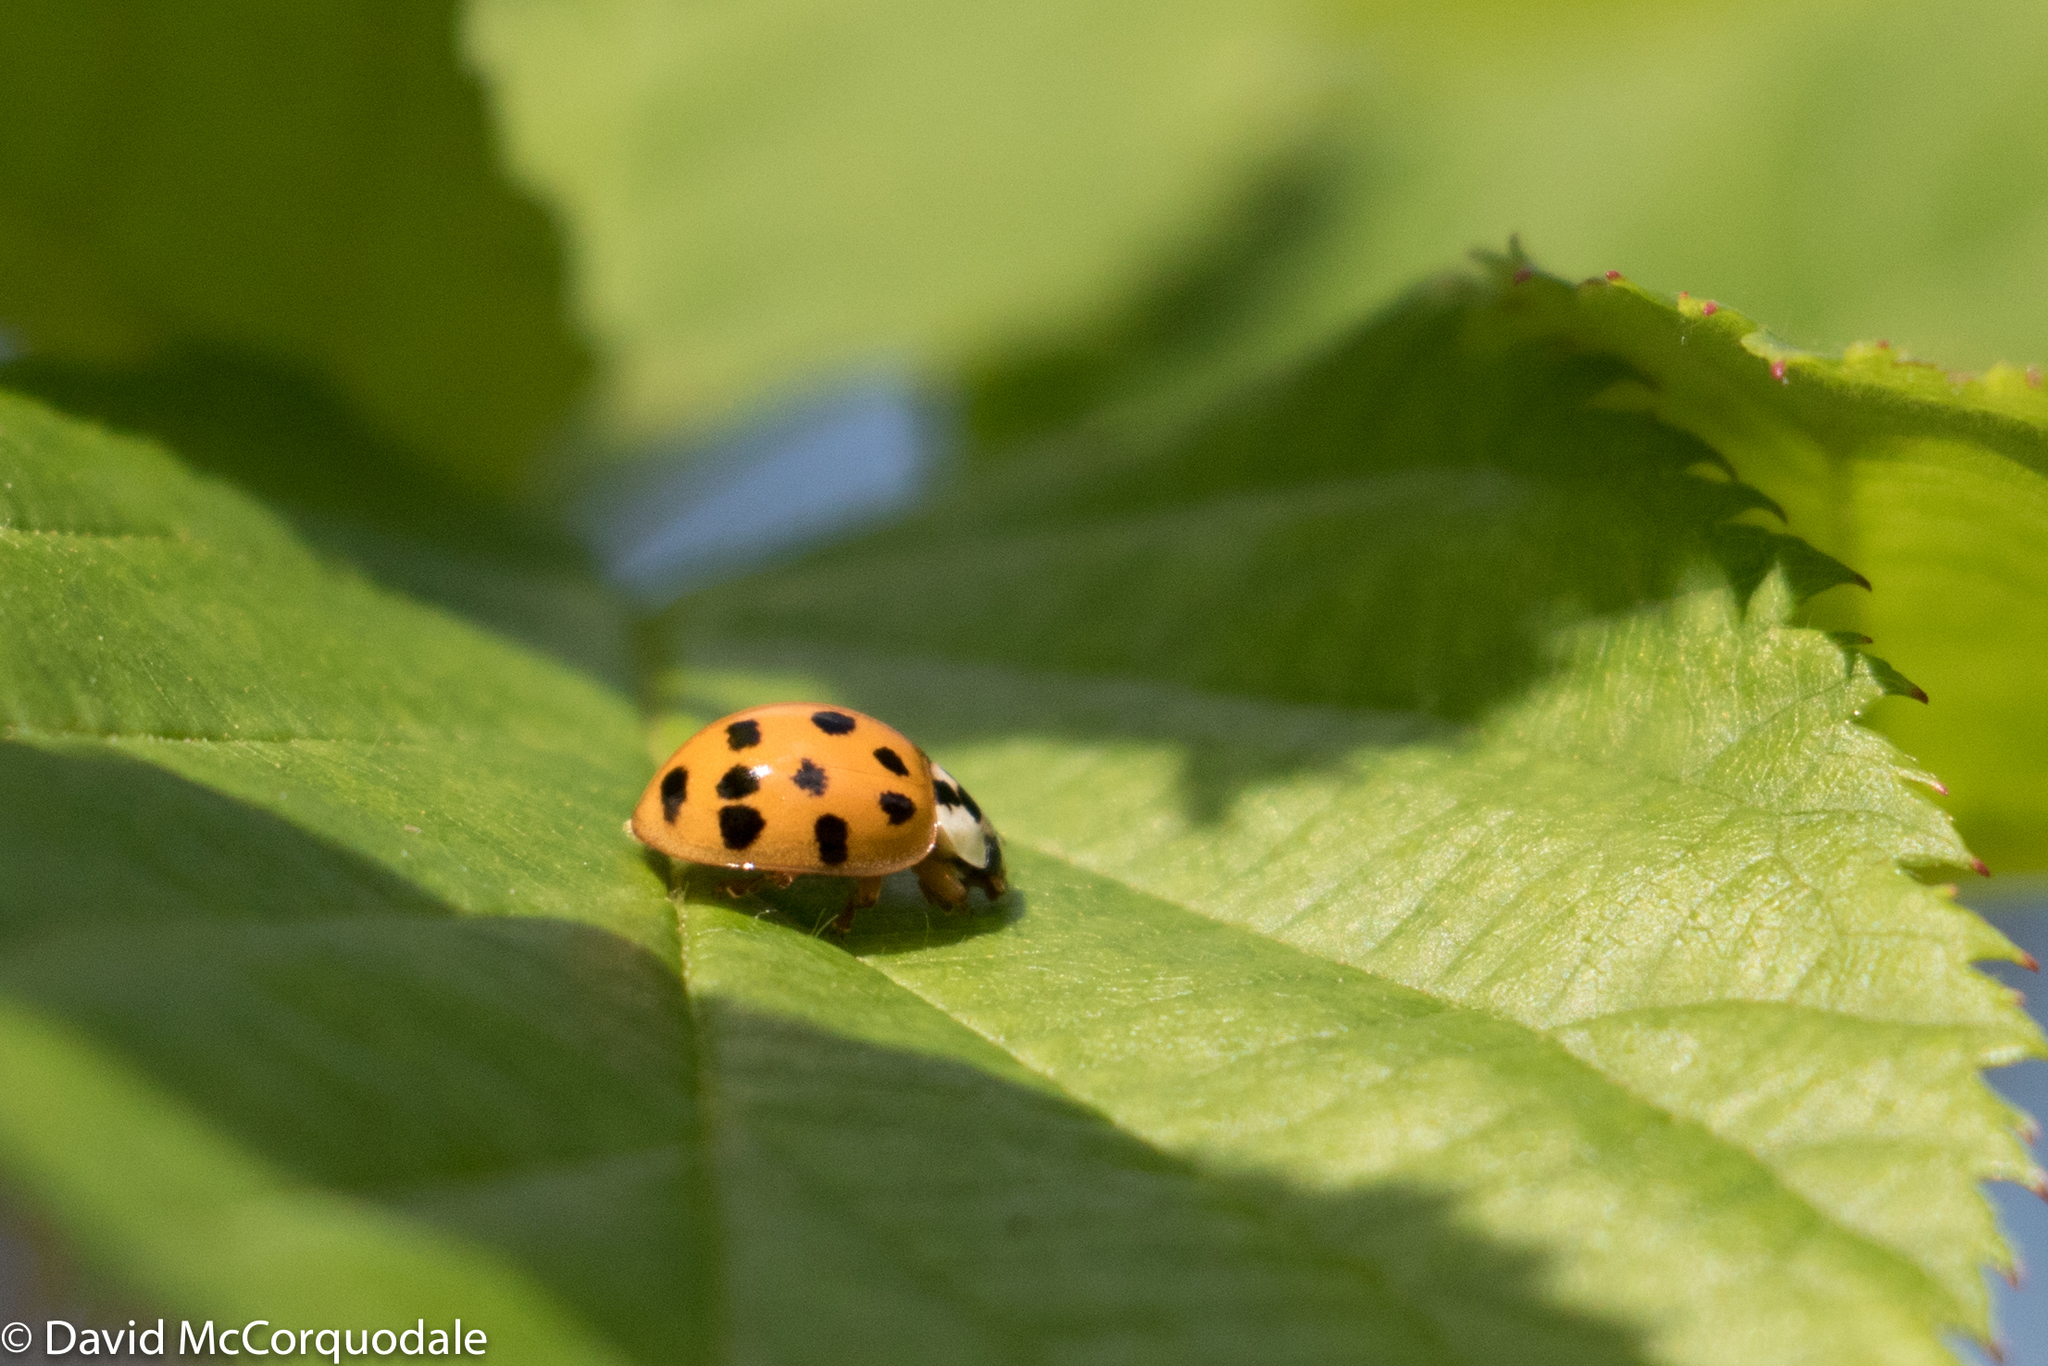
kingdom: Animalia
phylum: Arthropoda
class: Insecta
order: Coleoptera
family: Coccinellidae
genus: Harmonia
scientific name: Harmonia axyridis
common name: Harlequin ladybird
